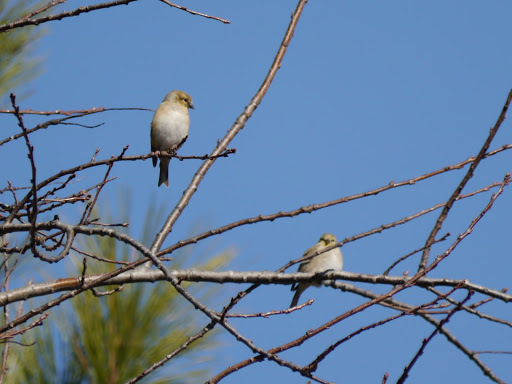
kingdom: Animalia
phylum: Chordata
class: Aves
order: Passeriformes
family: Fringillidae
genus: Spinus
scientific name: Spinus tristis
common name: American goldfinch
